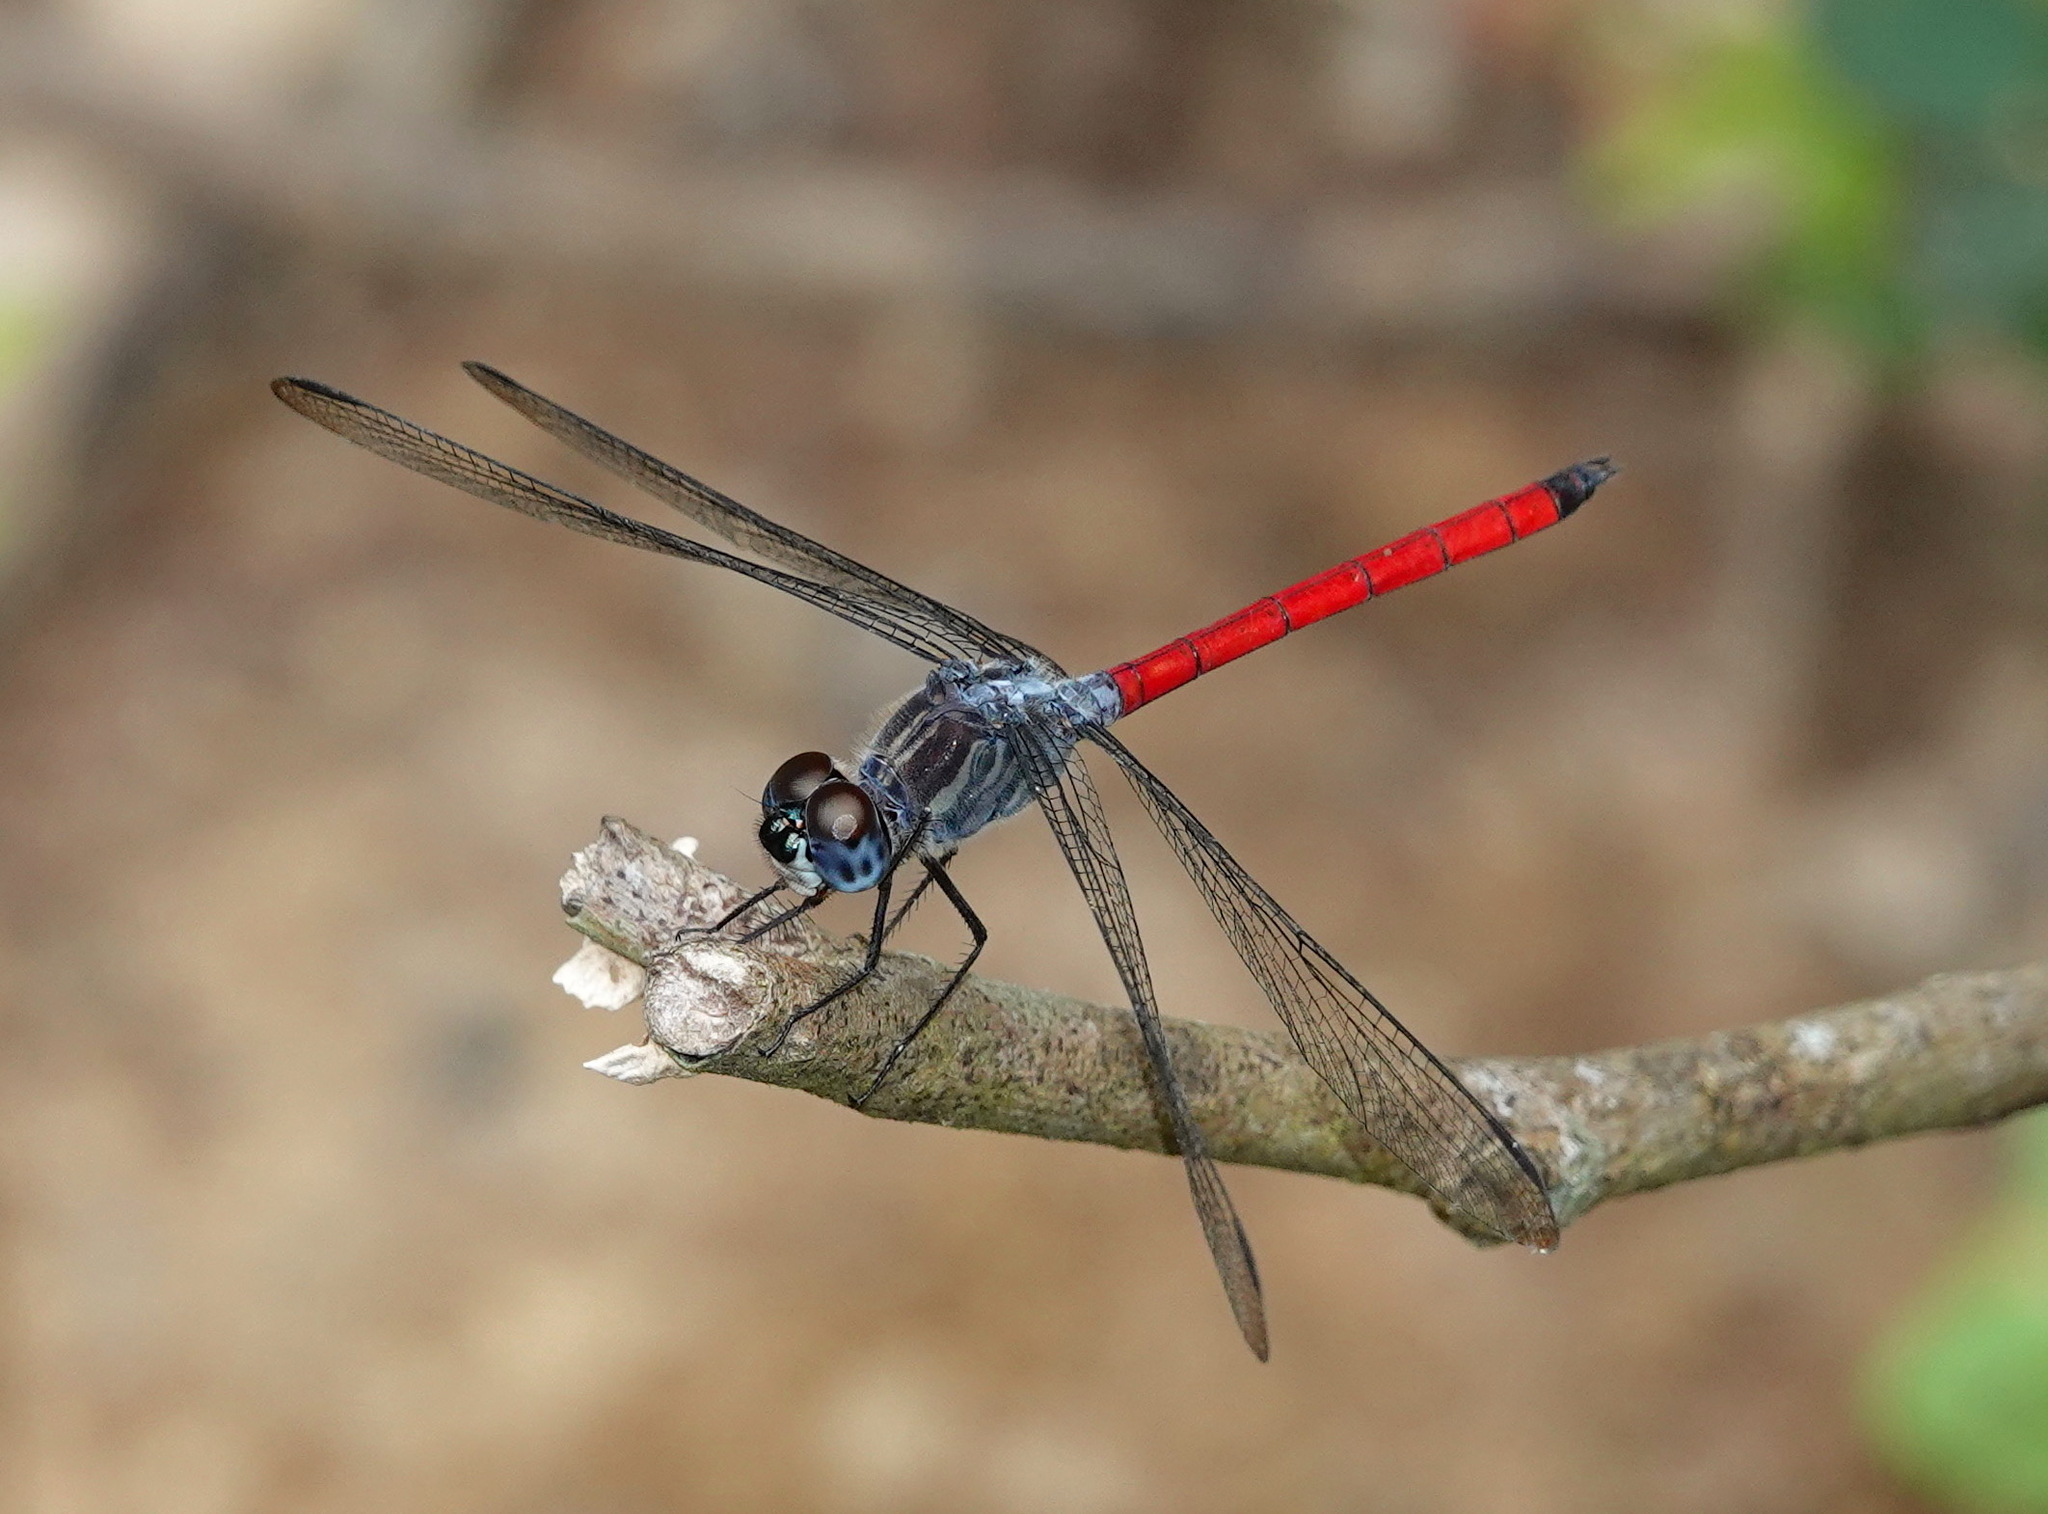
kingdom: Animalia
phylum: Arthropoda
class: Insecta
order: Odonata
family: Libellulidae
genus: Lathrecista
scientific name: Lathrecista asiatica
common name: Scarlet grenadier
